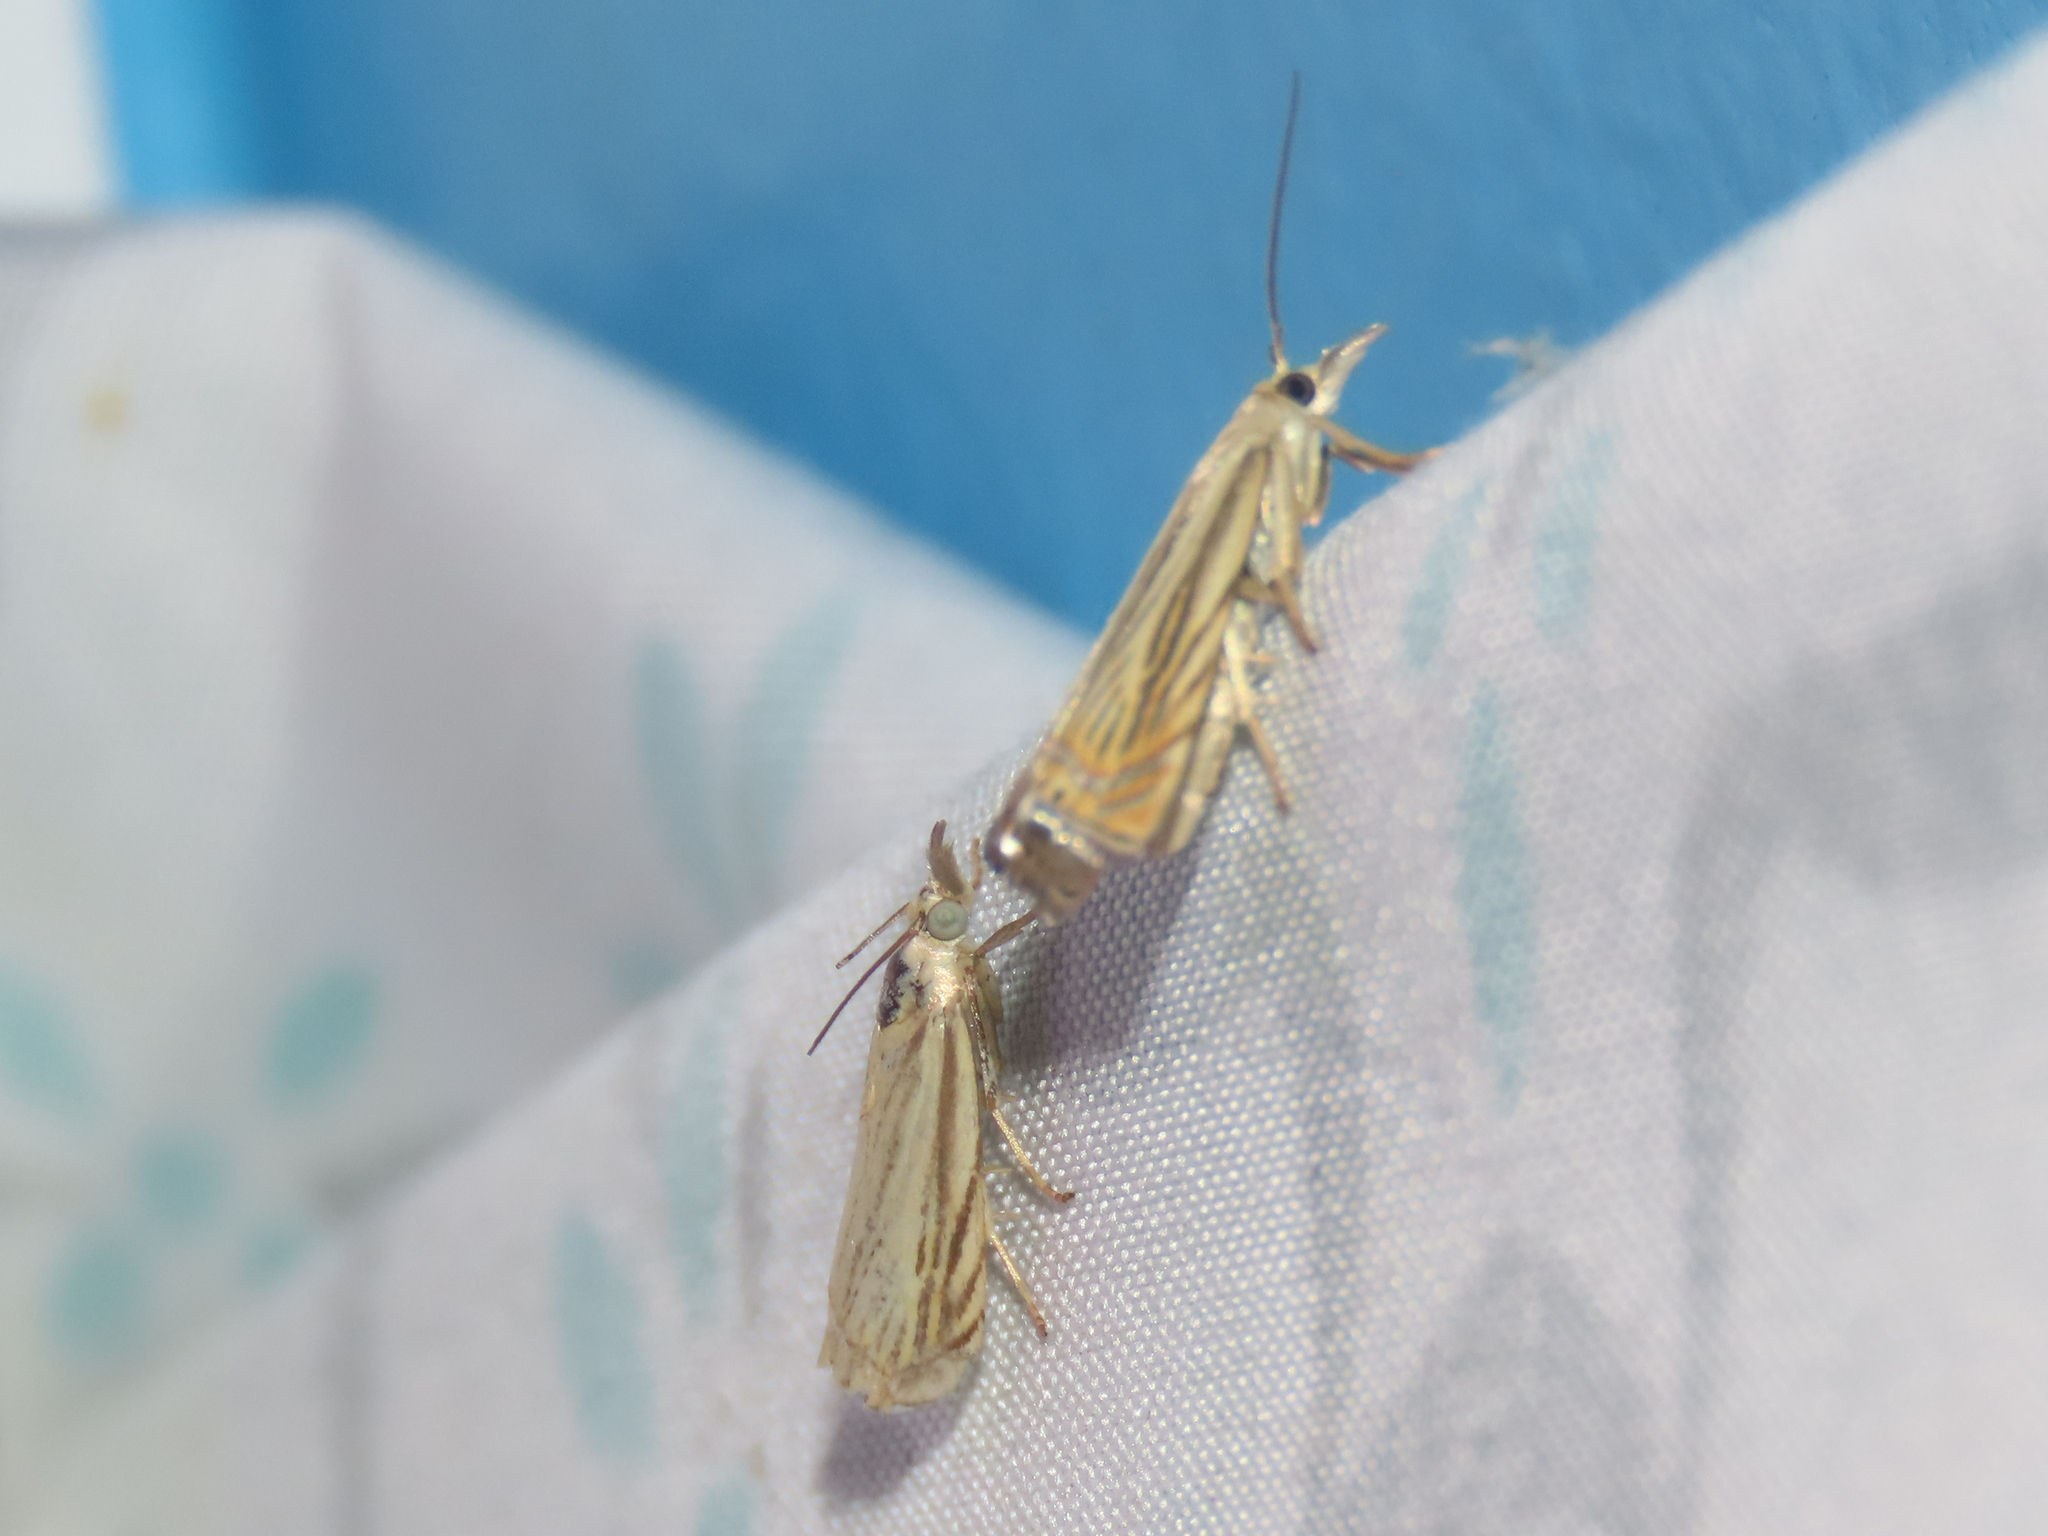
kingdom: Animalia
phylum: Arthropoda
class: Insecta
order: Lepidoptera
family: Crambidae
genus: Chrysoteuchia
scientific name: Chrysoteuchia topiarius
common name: Topiary grass-veneer
